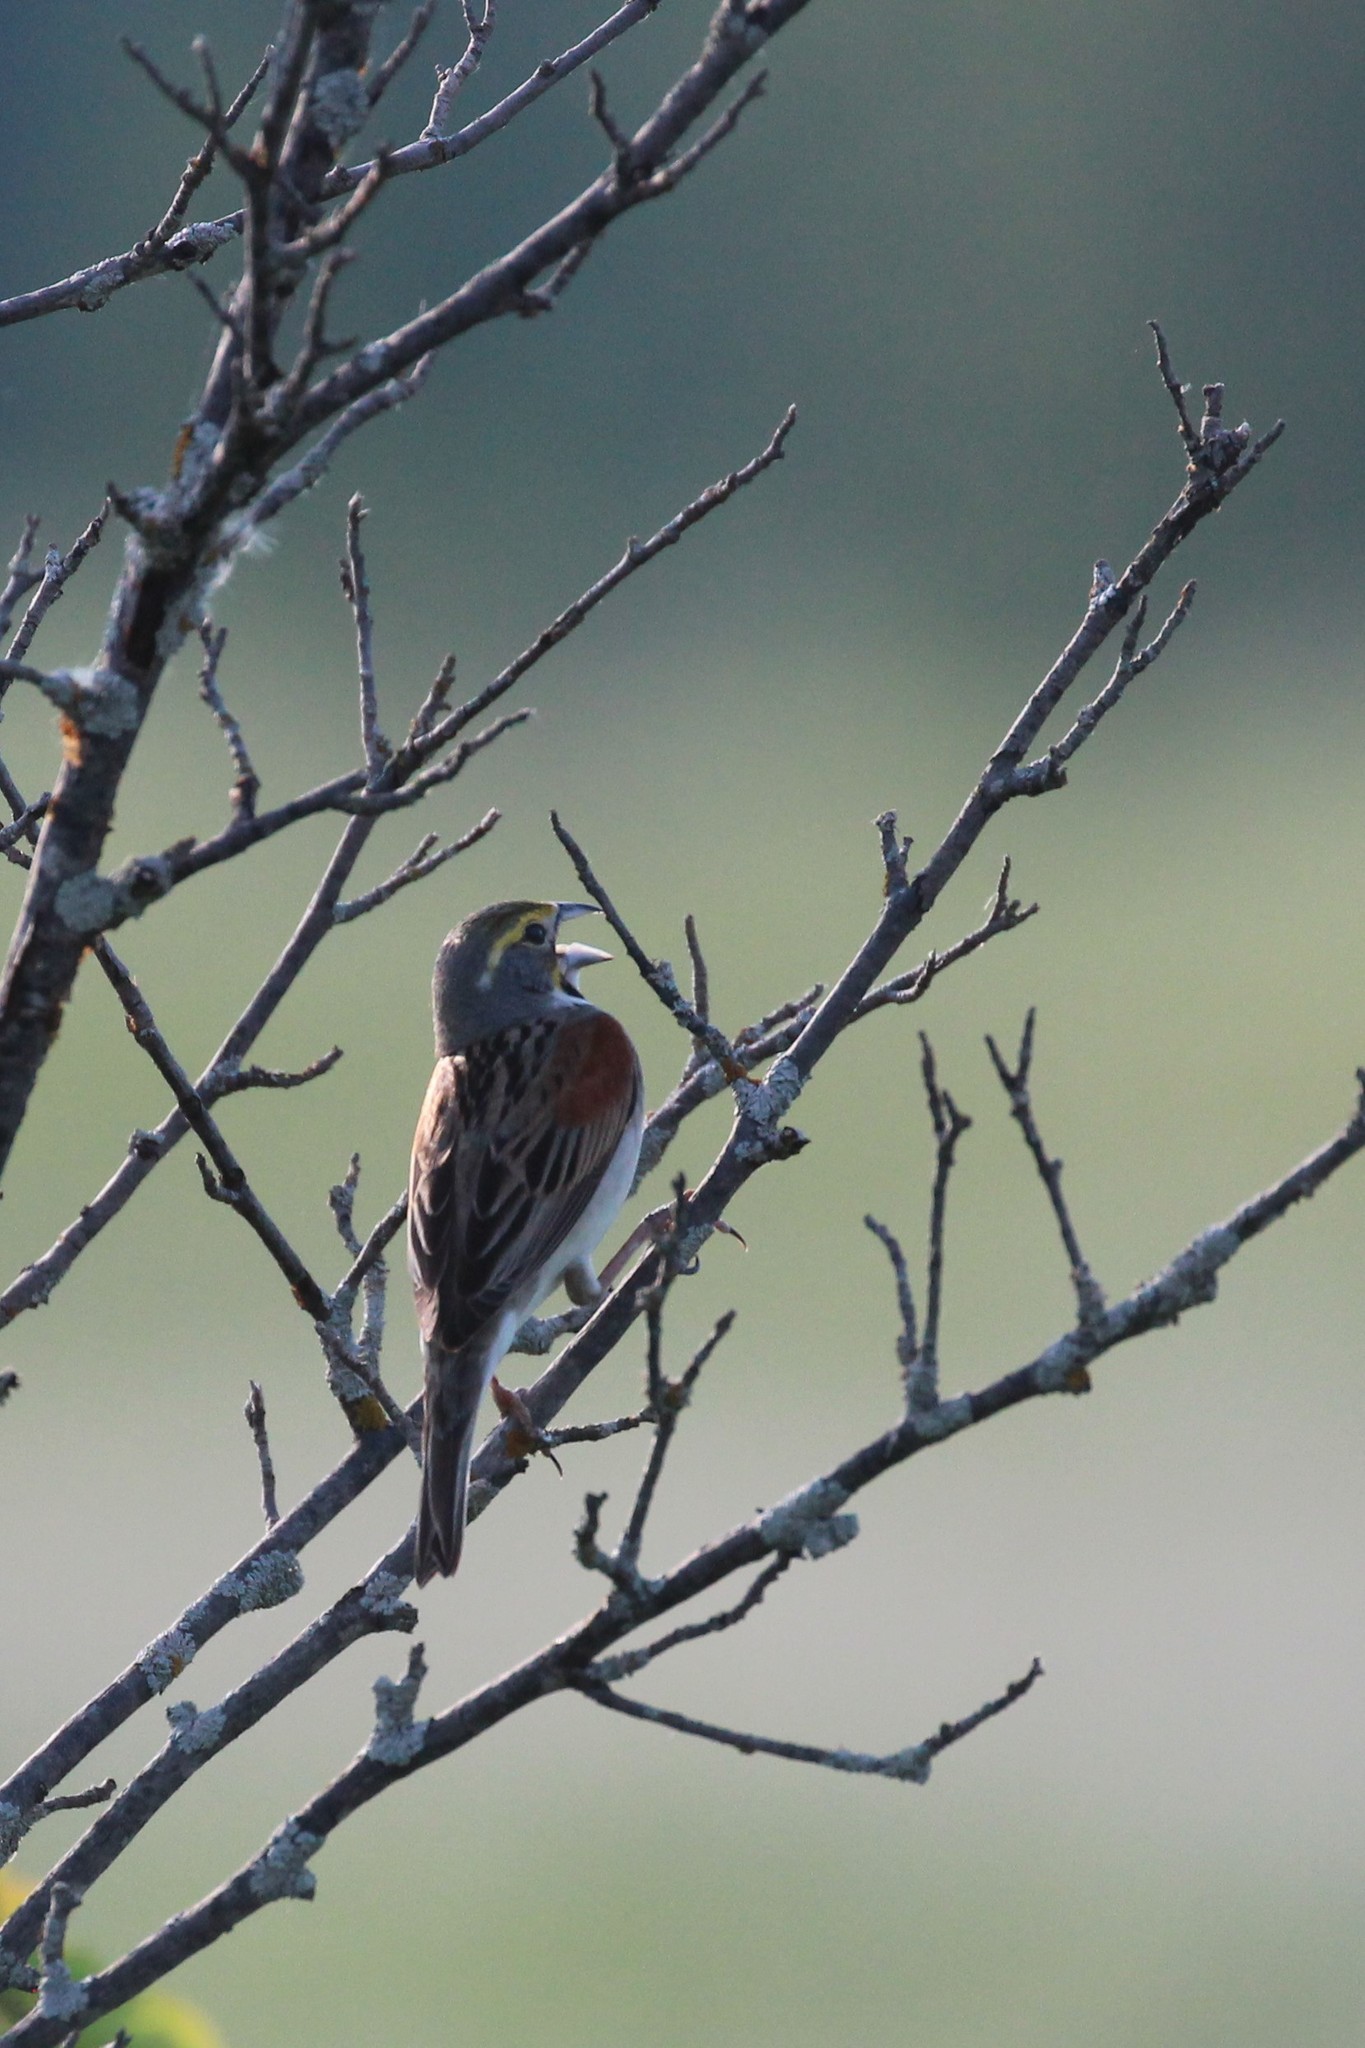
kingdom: Animalia
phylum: Chordata
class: Aves
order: Passeriformes
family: Cardinalidae
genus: Spiza
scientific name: Spiza americana
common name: Dickcissel
